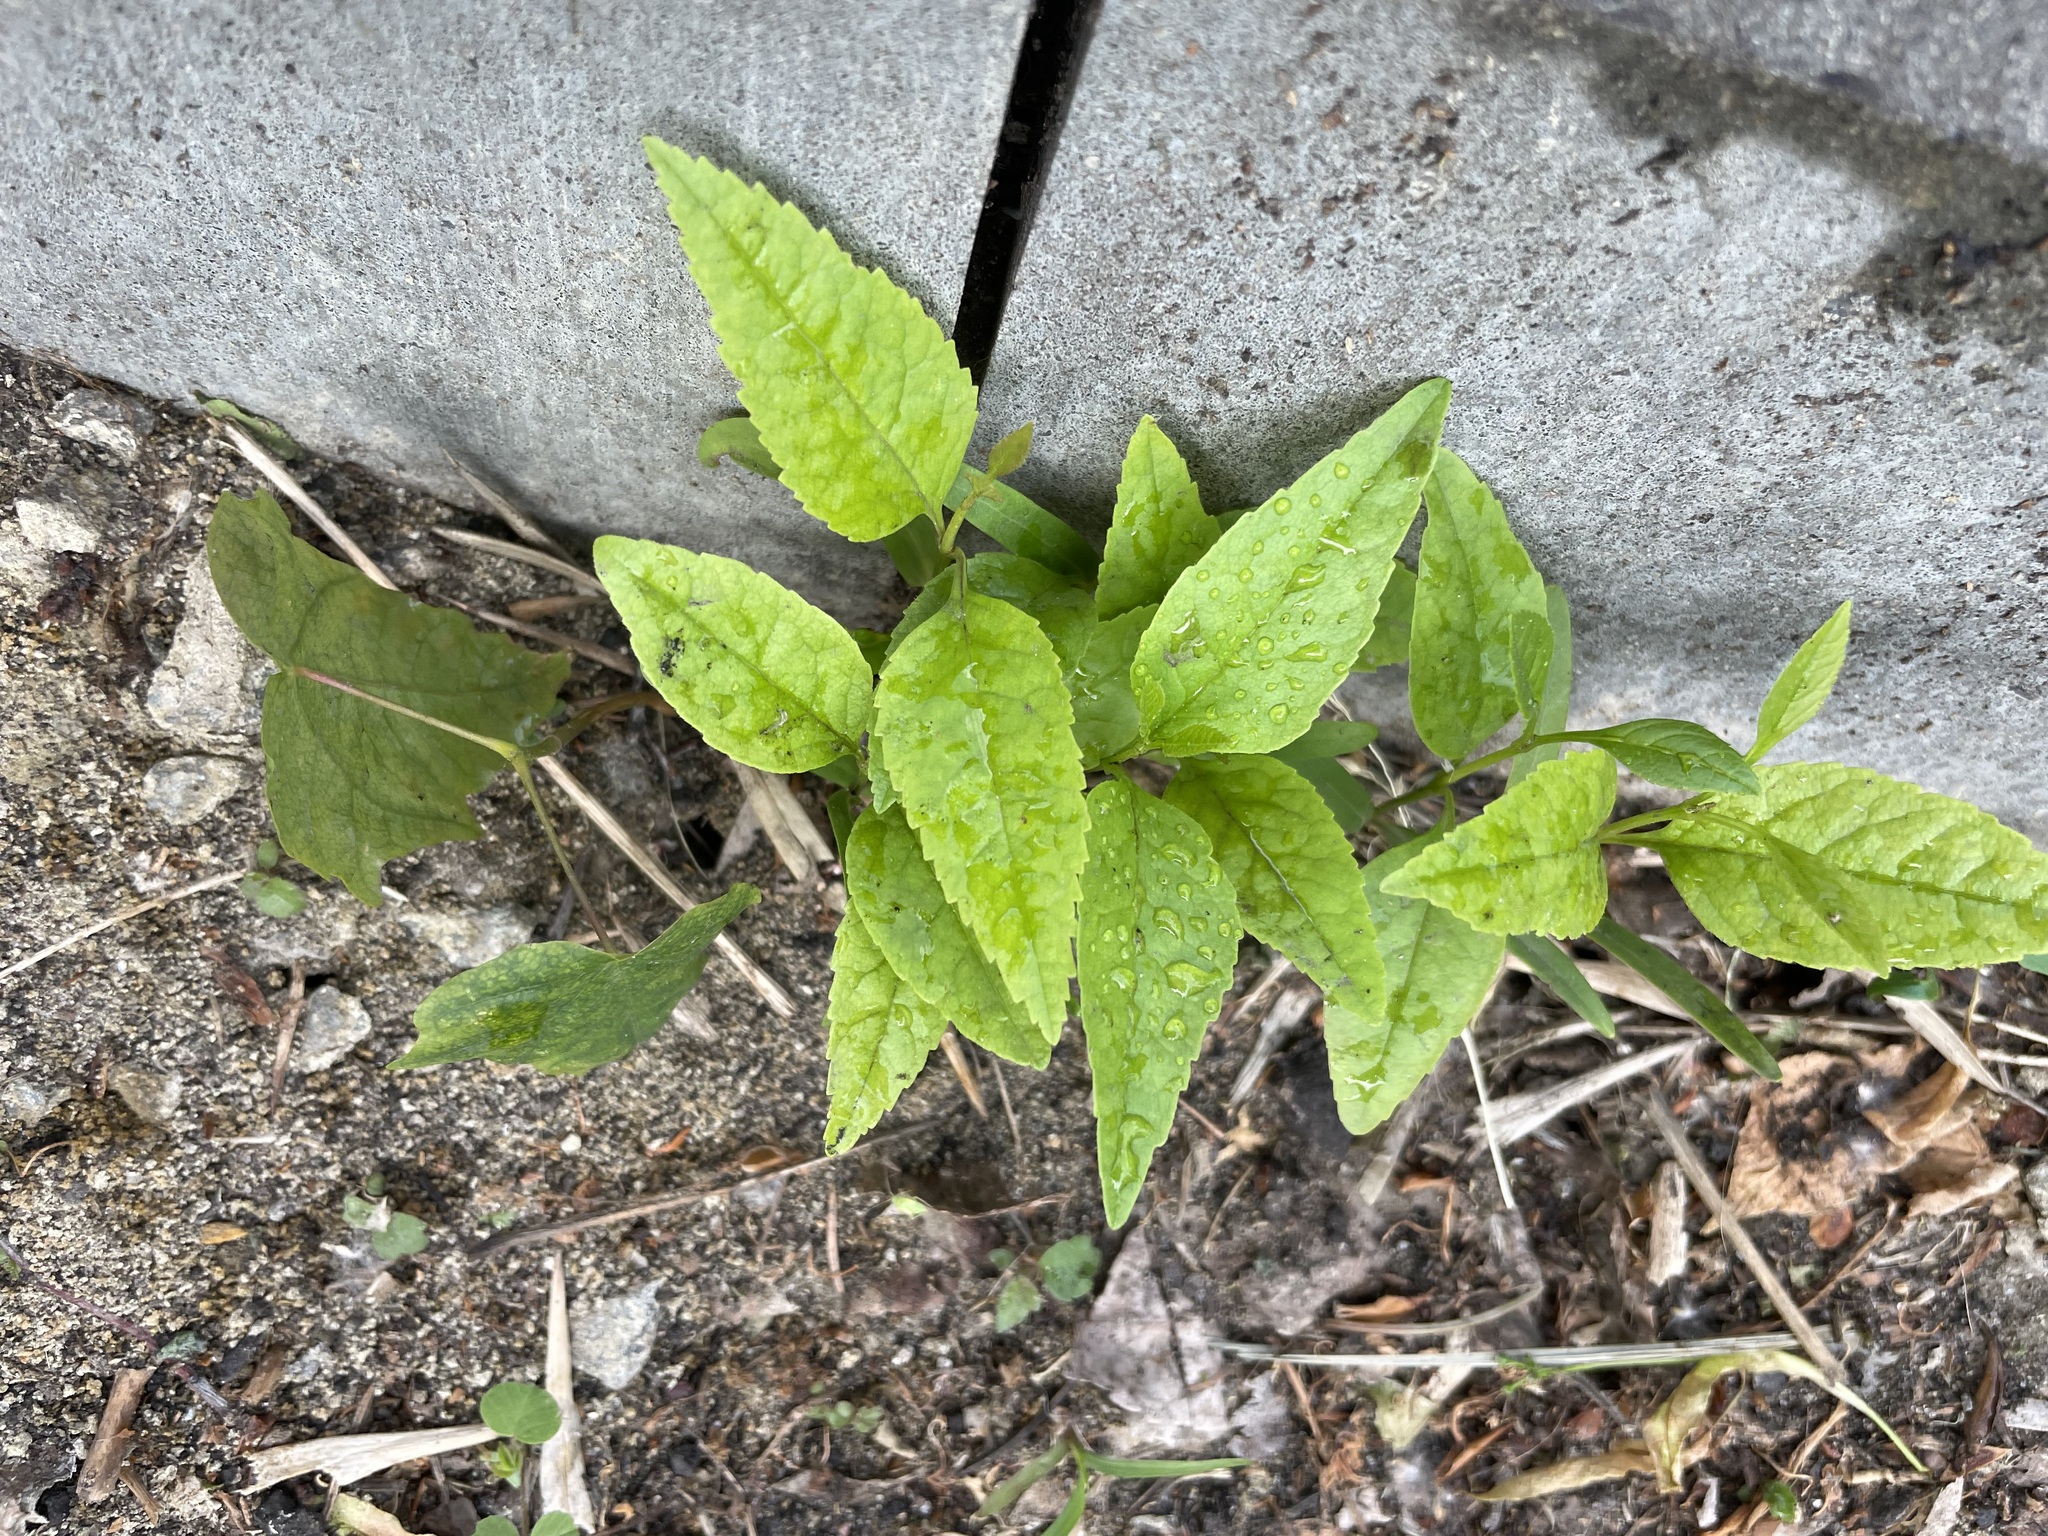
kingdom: Plantae
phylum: Tracheophyta
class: Magnoliopsida
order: Lamiales
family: Oleaceae
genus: Fraxinus
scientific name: Fraxinus pennsylvanica
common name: Green ash
